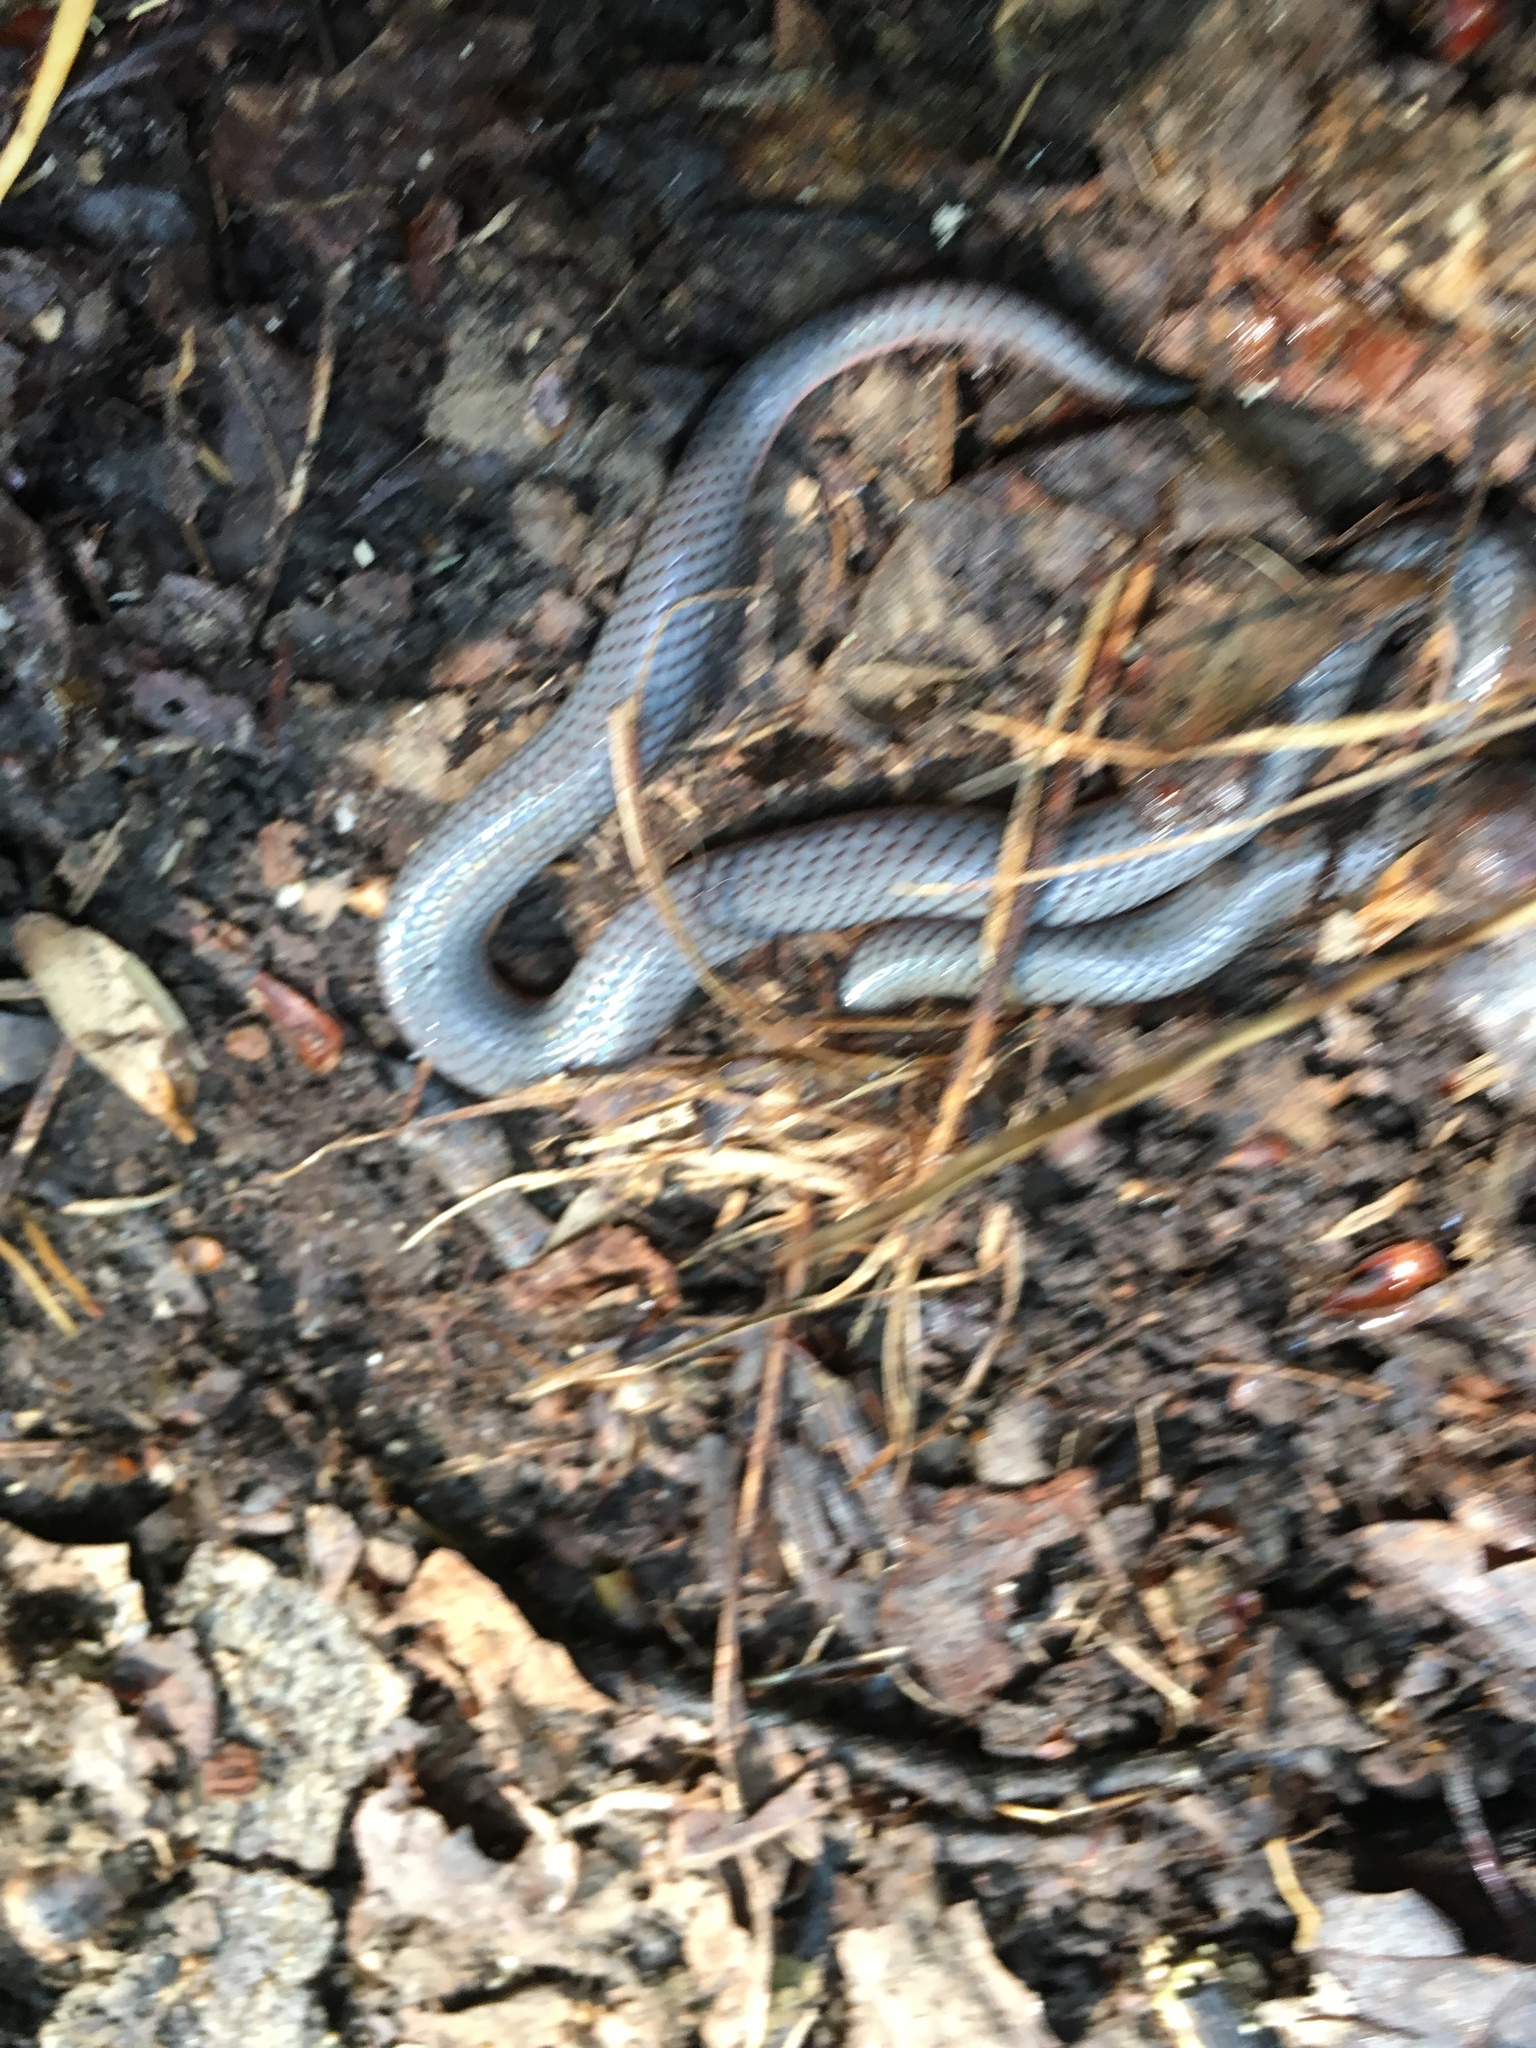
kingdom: Animalia
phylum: Chordata
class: Squamata
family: Colubridae
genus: Carphophis
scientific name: Carphophis amoenus
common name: Eastern worm snake
